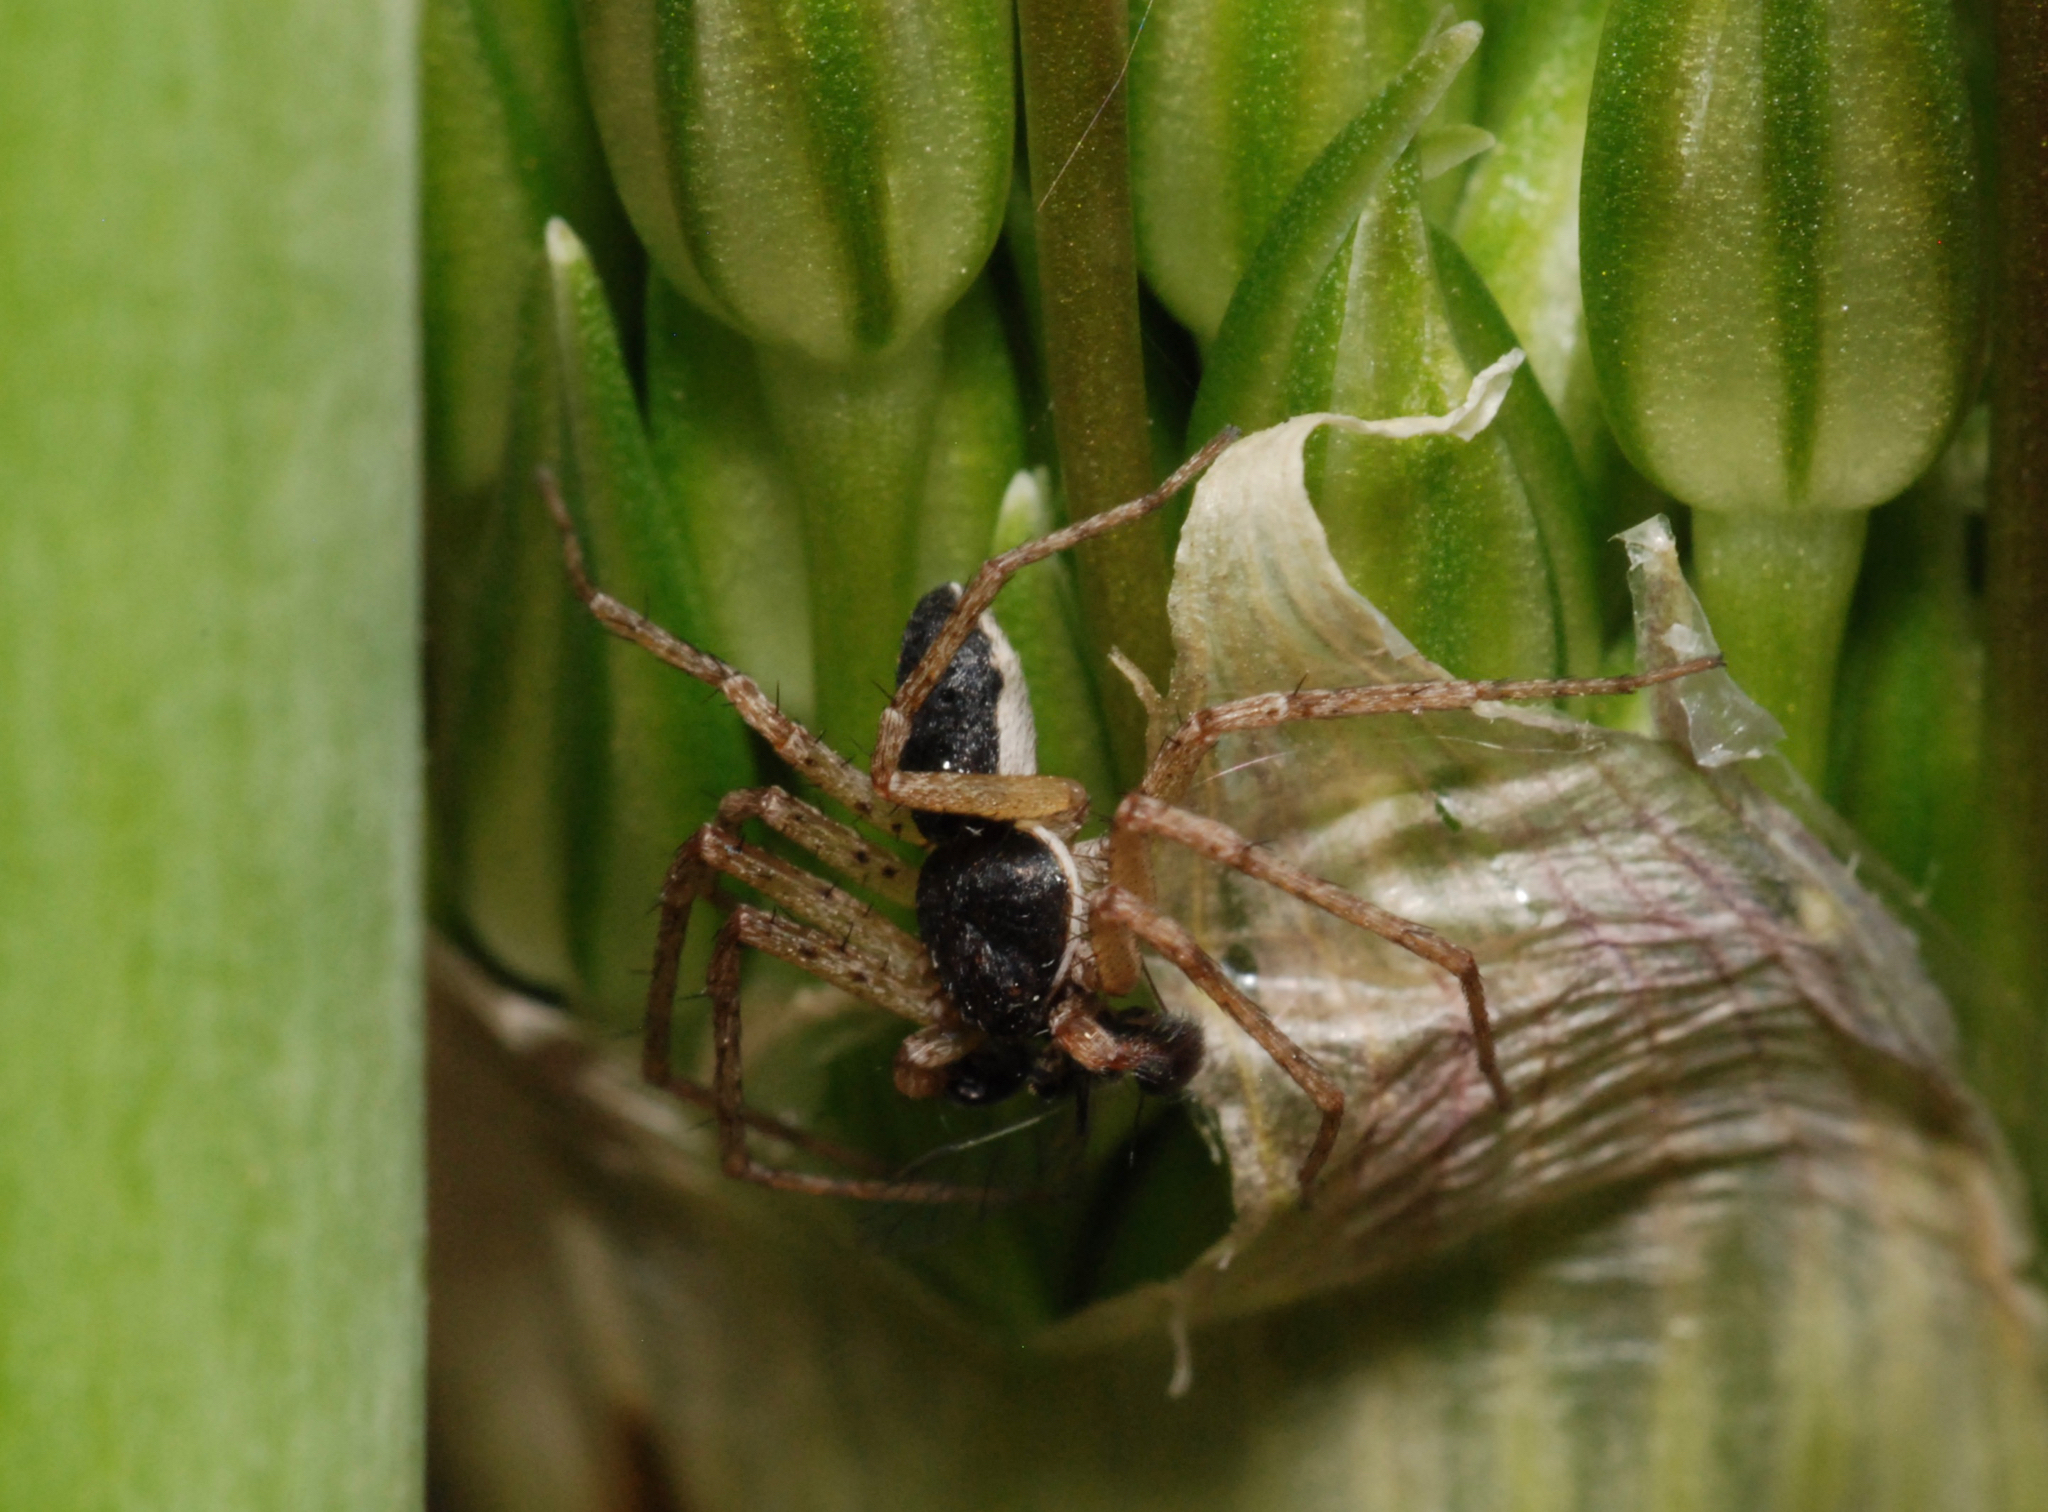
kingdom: Animalia
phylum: Arthropoda
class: Arachnida
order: Araneae
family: Philodromidae
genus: Philodromus
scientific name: Philodromus dispar
